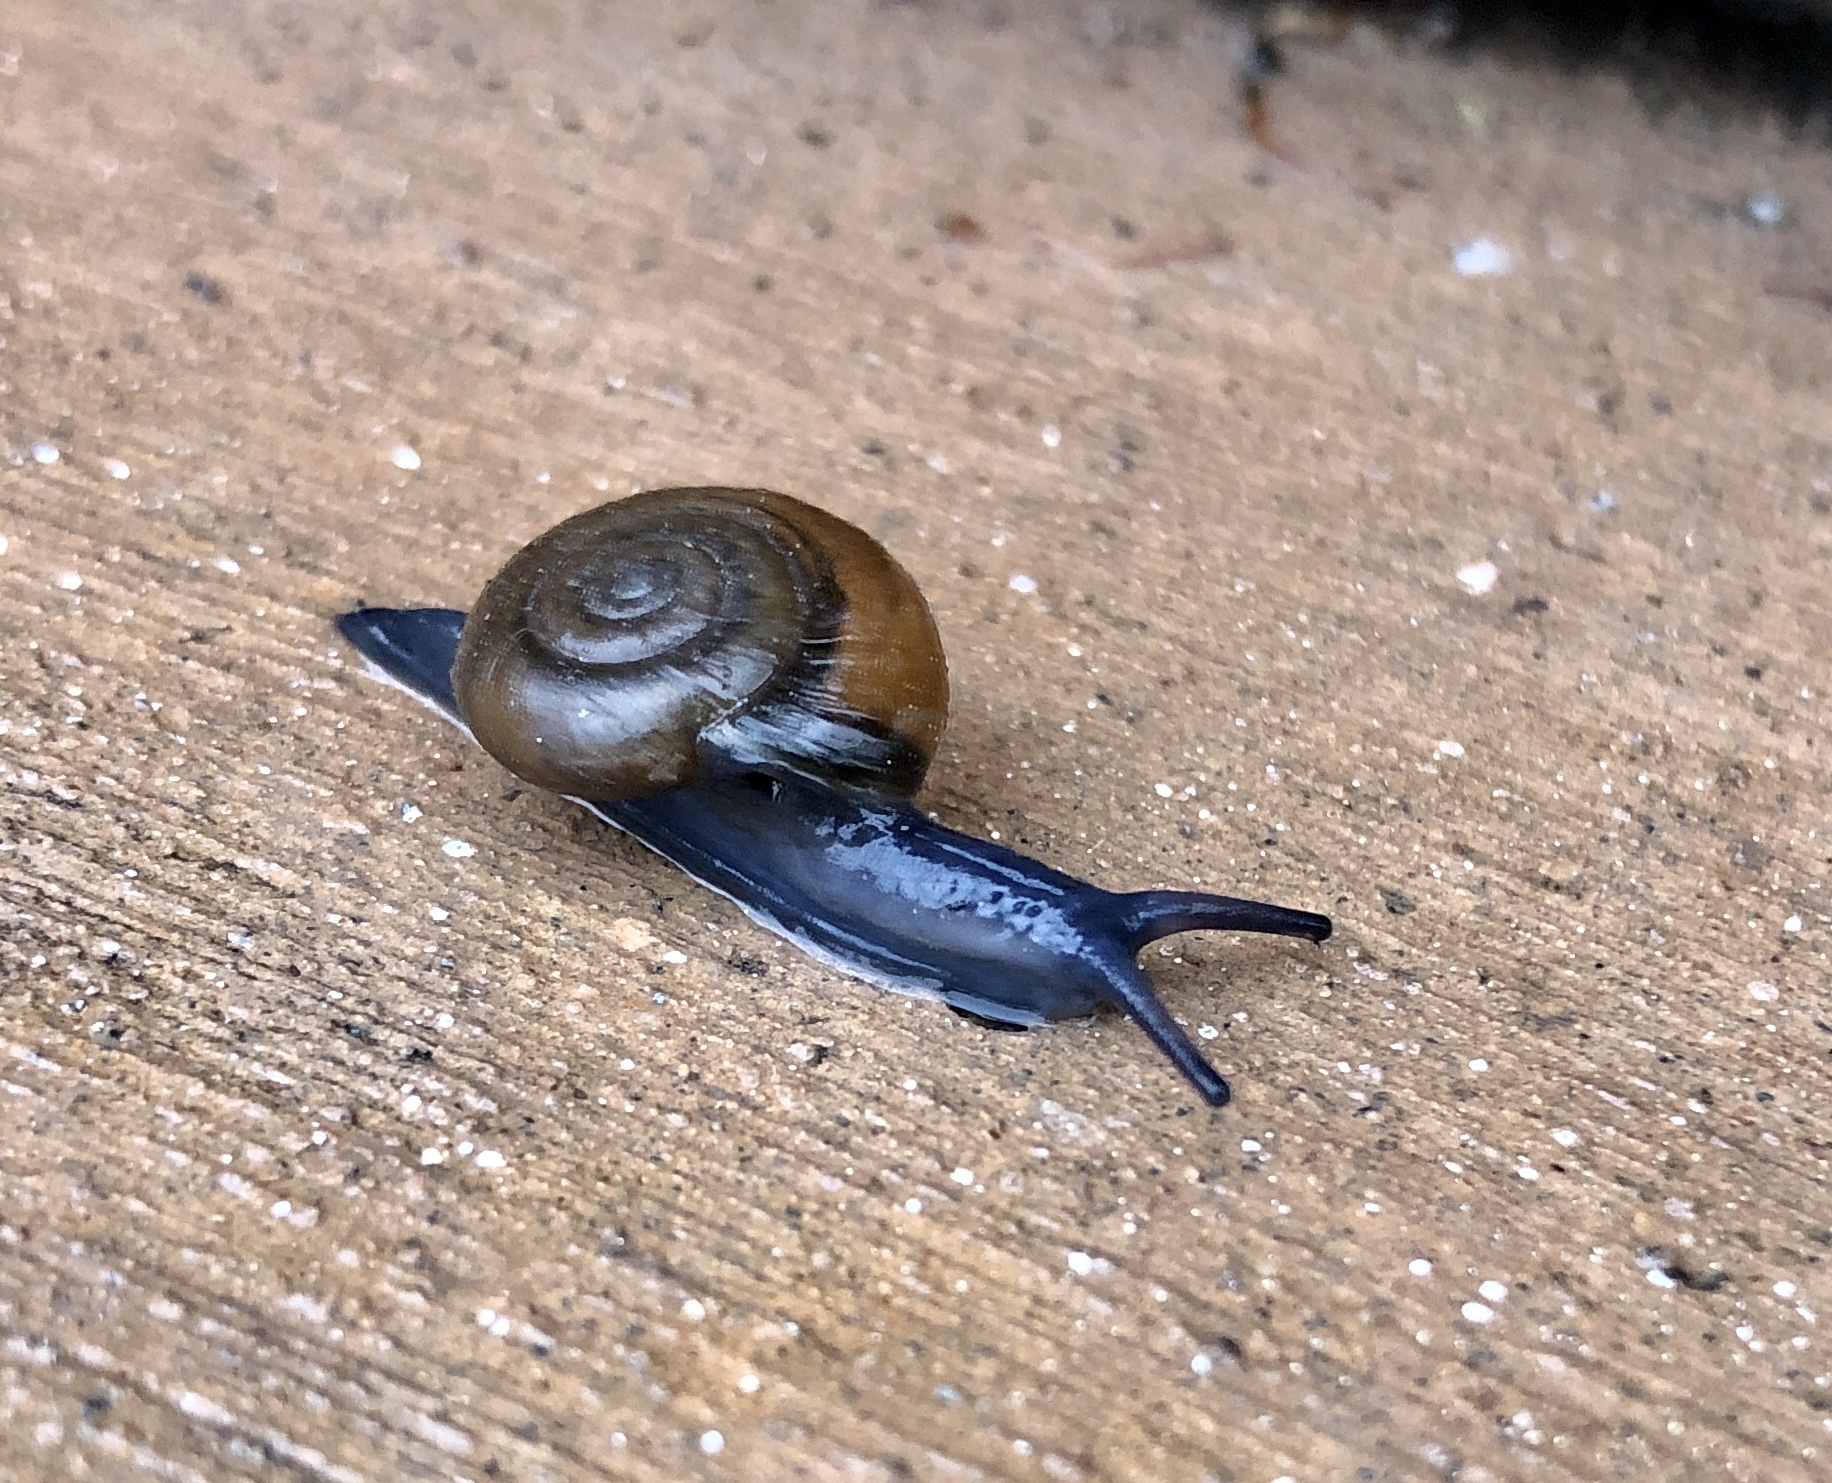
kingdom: Animalia
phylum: Mollusca
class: Gastropoda
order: Stylommatophora
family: Oxychilidae
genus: Oxychilus
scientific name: Oxychilus draparnaudi
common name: Draparnaud's glass snail
